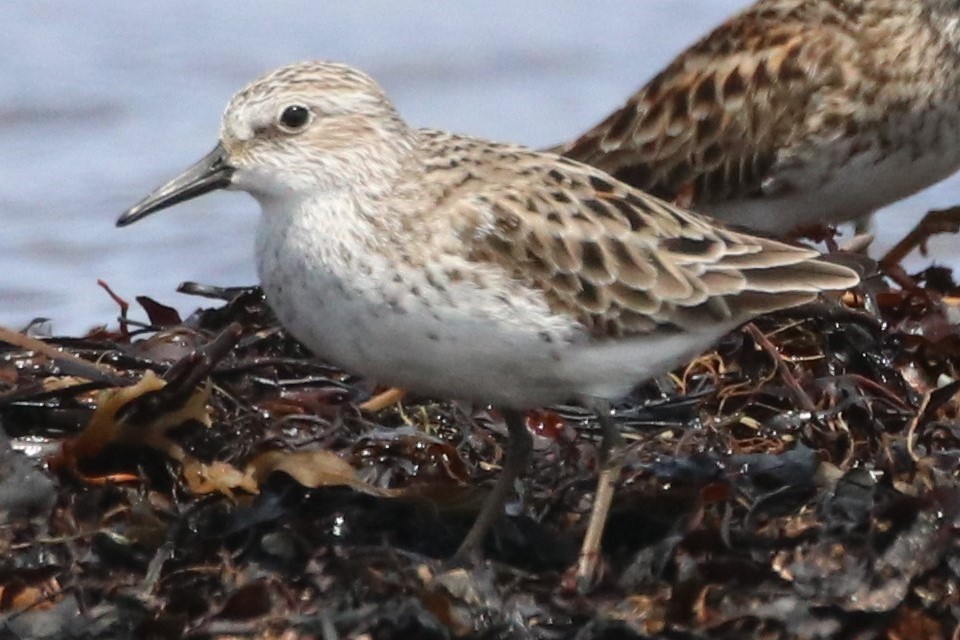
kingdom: Animalia
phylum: Chordata
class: Aves
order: Charadriiformes
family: Scolopacidae
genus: Calidris
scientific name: Calidris pusilla
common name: Semipalmated sandpiper
